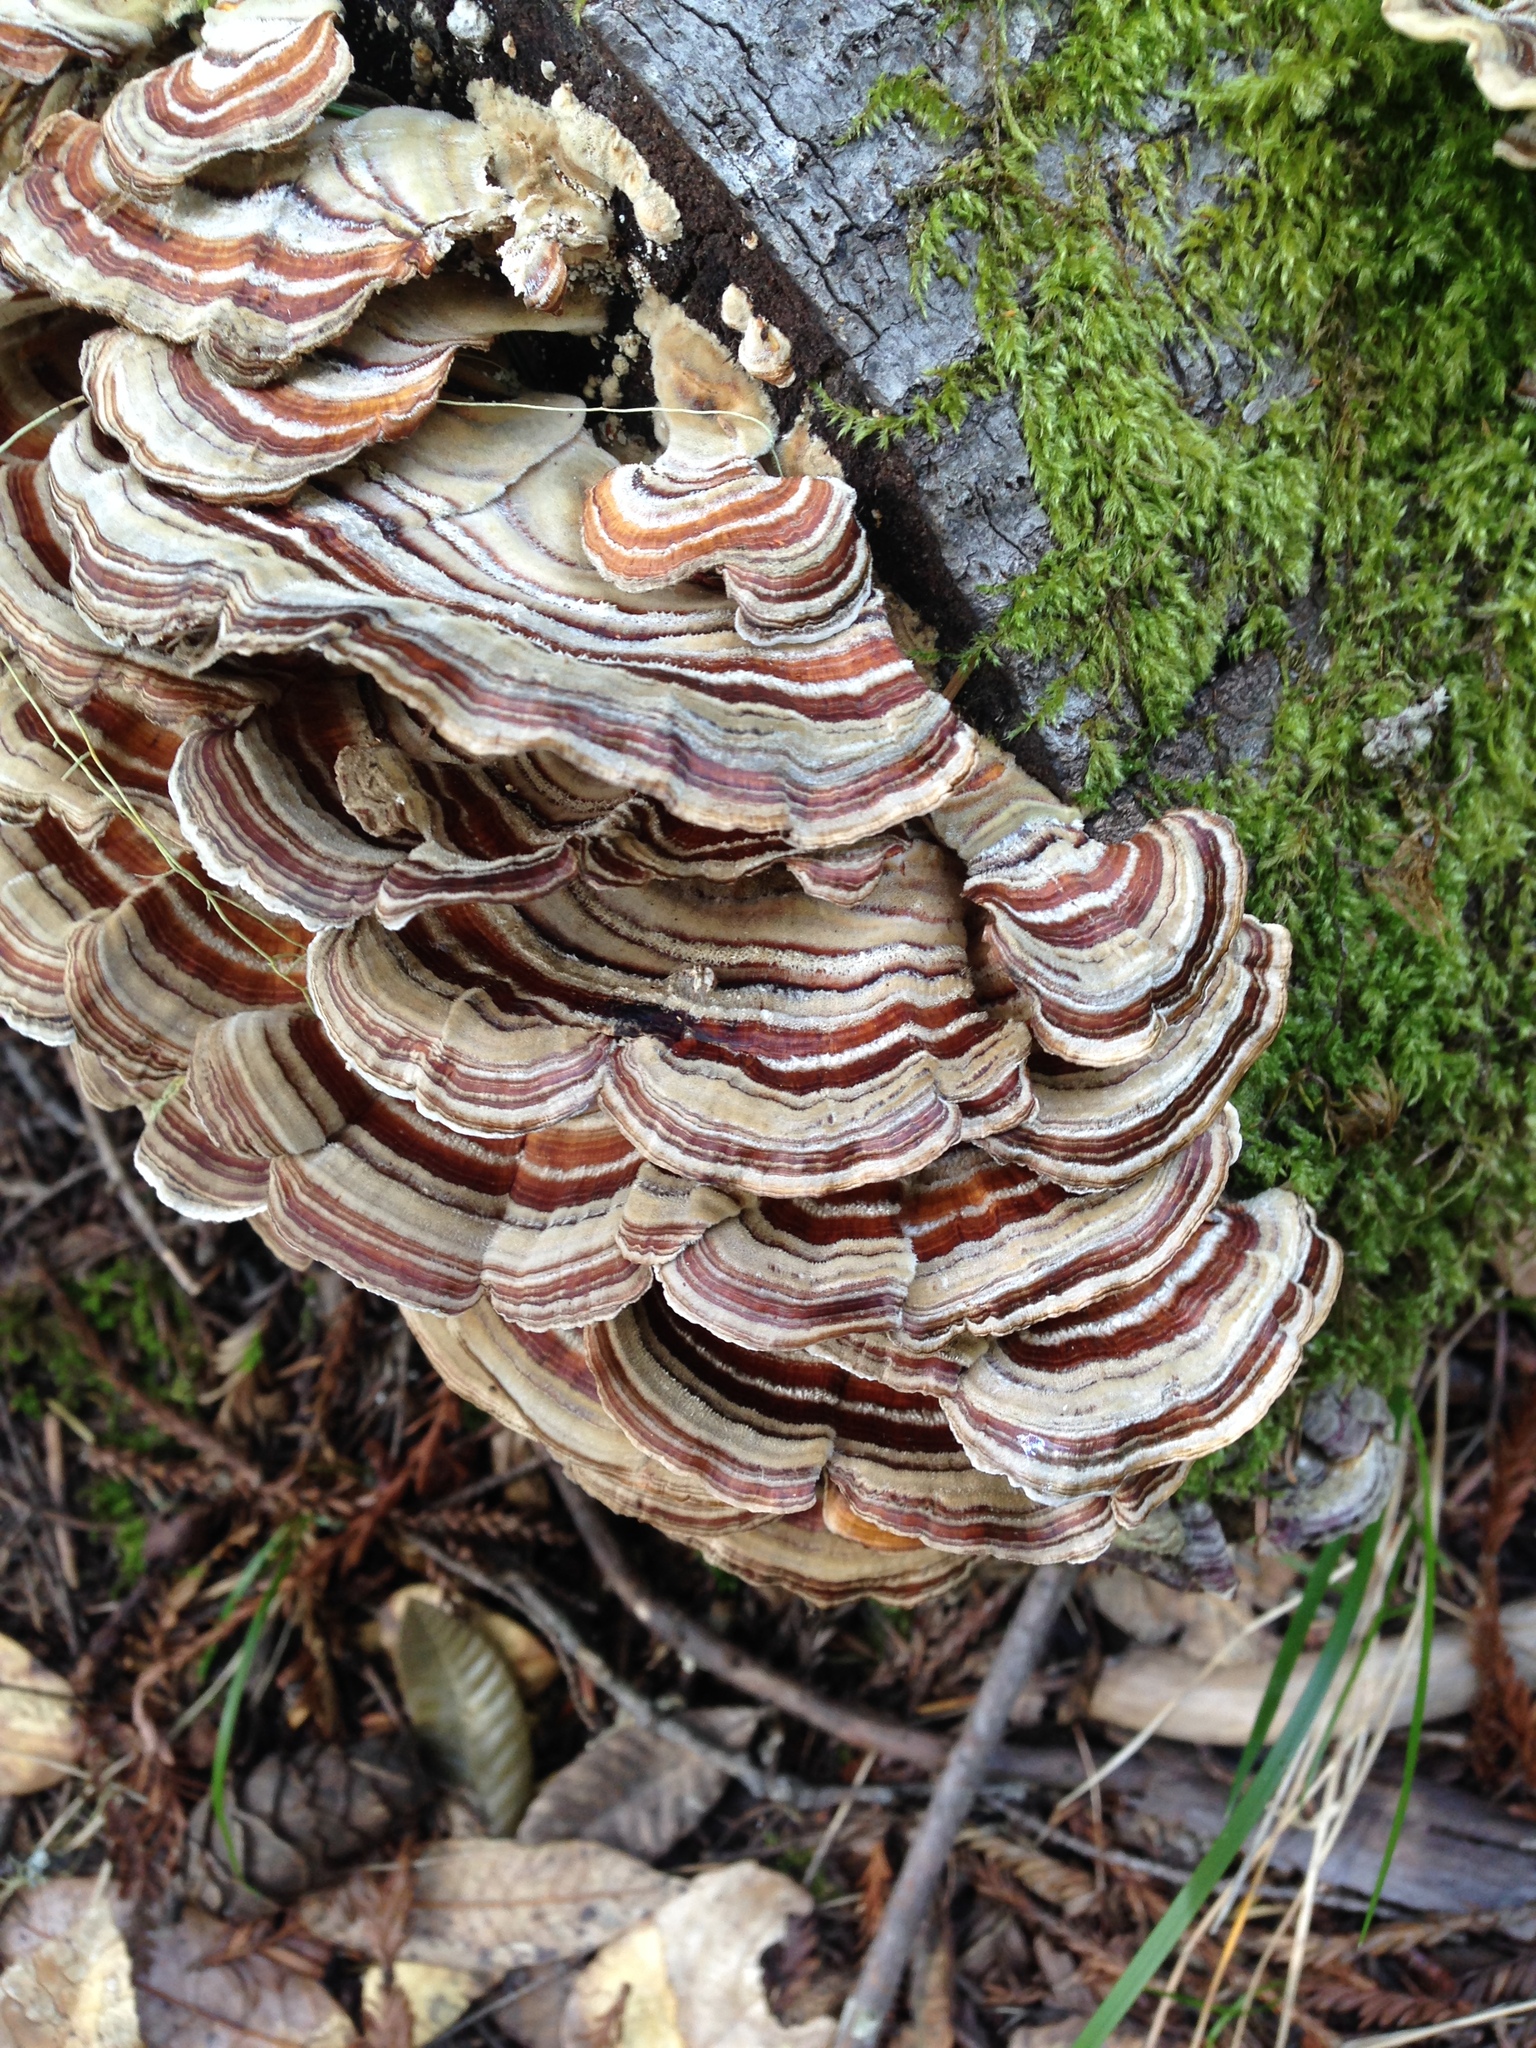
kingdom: Fungi
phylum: Basidiomycota
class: Agaricomycetes
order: Polyporales
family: Polyporaceae
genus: Trametes
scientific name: Trametes versicolor
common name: Turkeytail
